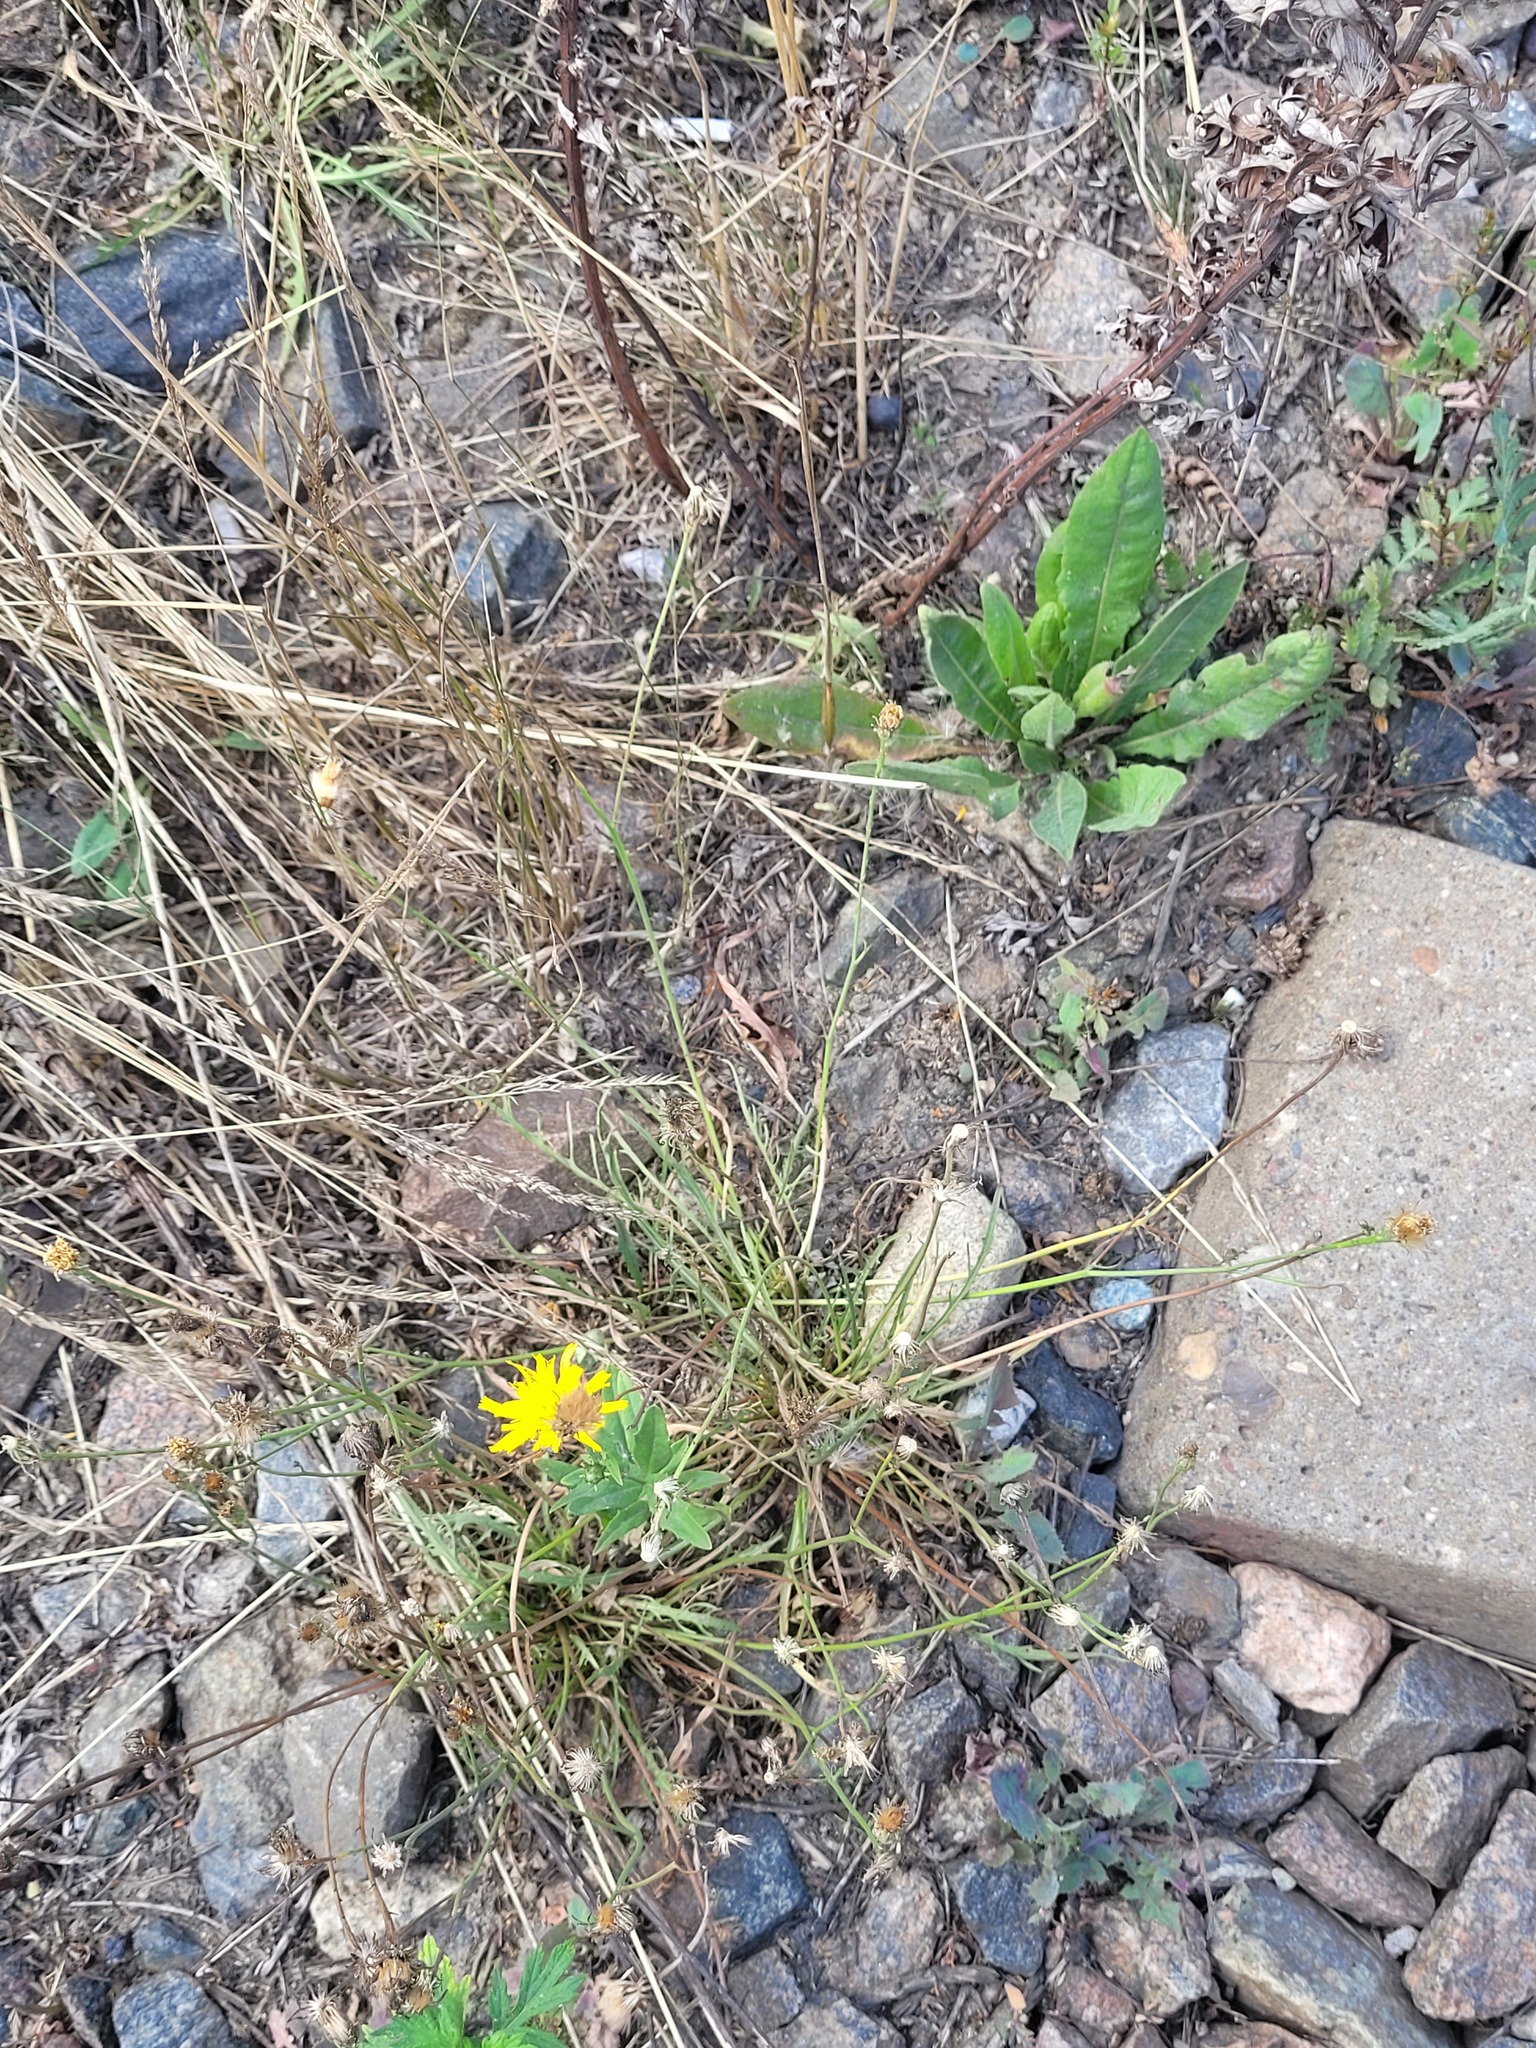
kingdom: Plantae
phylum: Tracheophyta
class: Magnoliopsida
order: Asterales
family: Asteraceae
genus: Scorzoneroides
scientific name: Scorzoneroides autumnalis
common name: Autumn hawkbit
